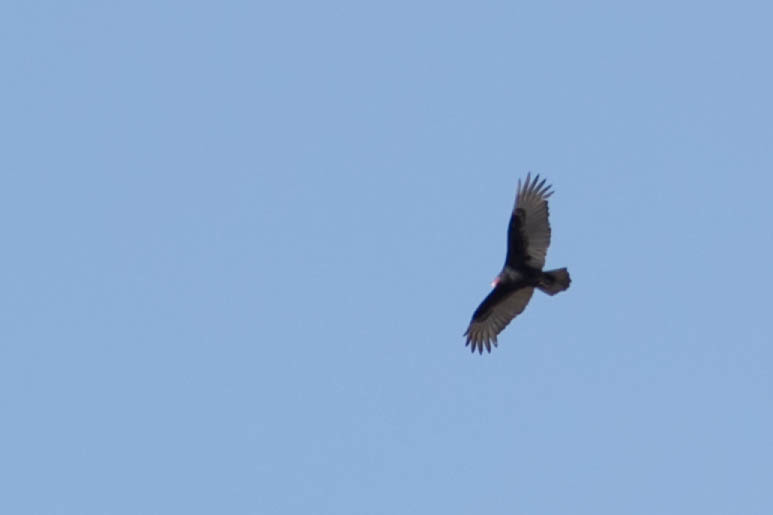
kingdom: Animalia
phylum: Chordata
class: Aves
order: Accipitriformes
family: Cathartidae
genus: Cathartes
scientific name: Cathartes aura
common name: Turkey vulture
